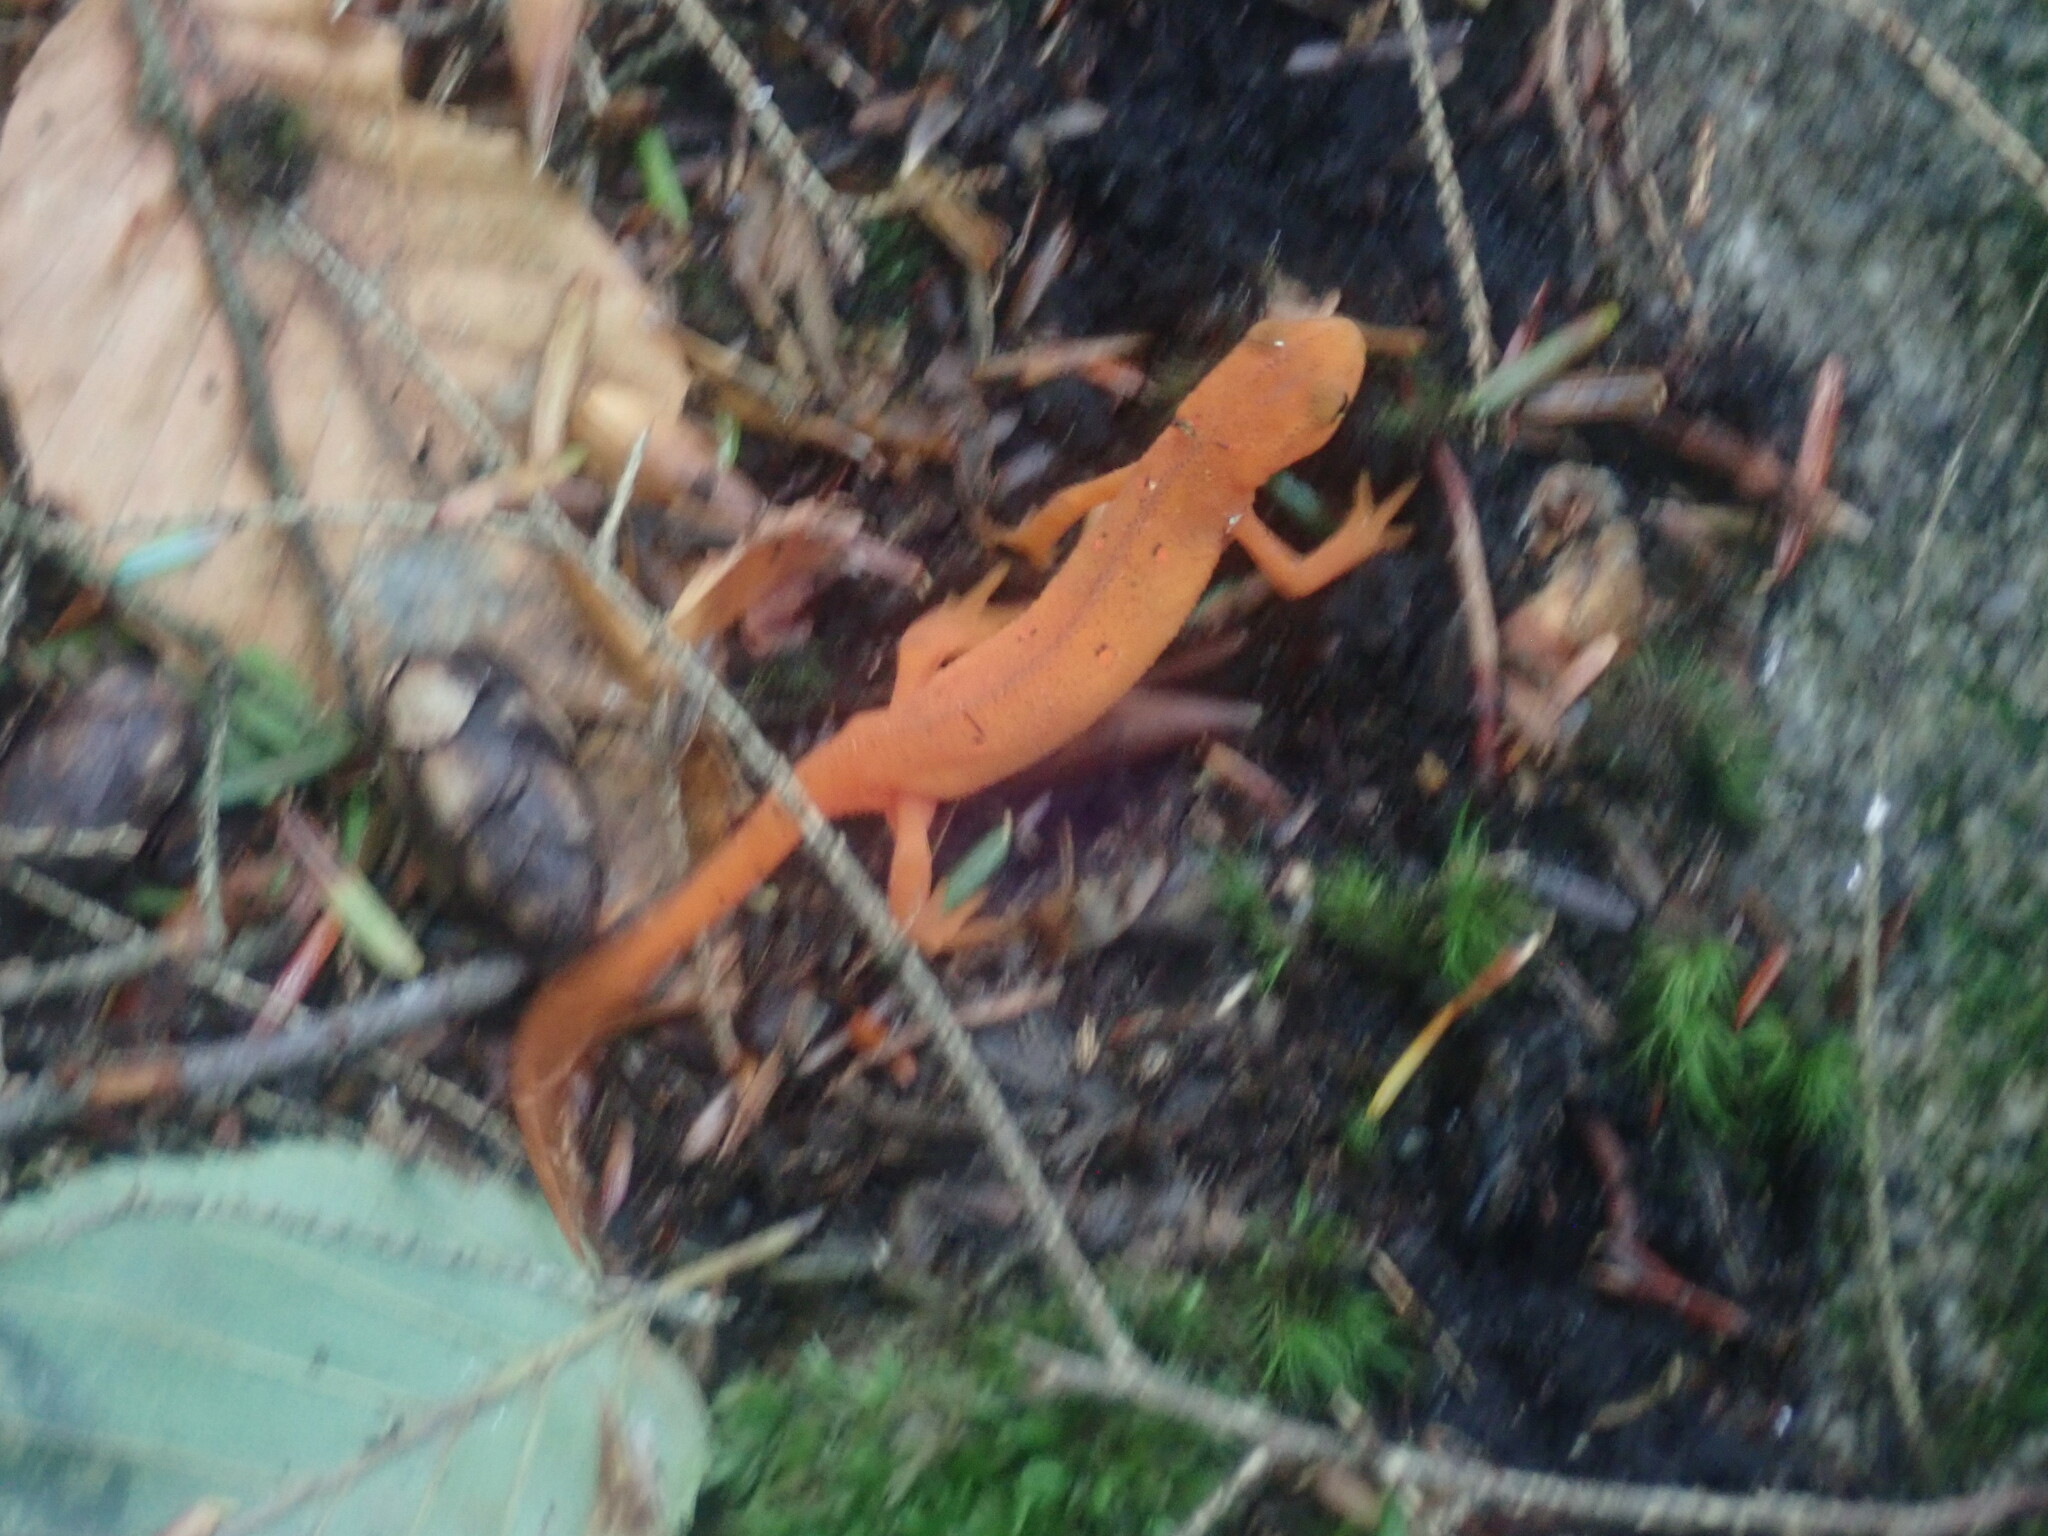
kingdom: Animalia
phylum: Chordata
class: Amphibia
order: Caudata
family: Salamandridae
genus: Notophthalmus
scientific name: Notophthalmus viridescens
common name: Eastern newt
